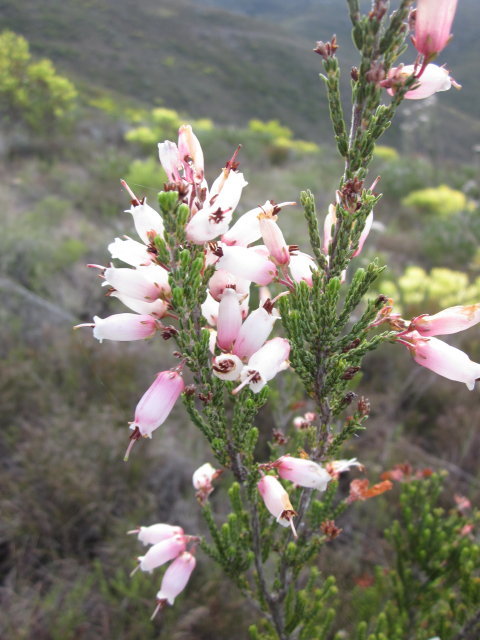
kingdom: Plantae
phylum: Tracheophyta
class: Magnoliopsida
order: Ericales
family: Ericaceae
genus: Erica
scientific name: Erica recta
